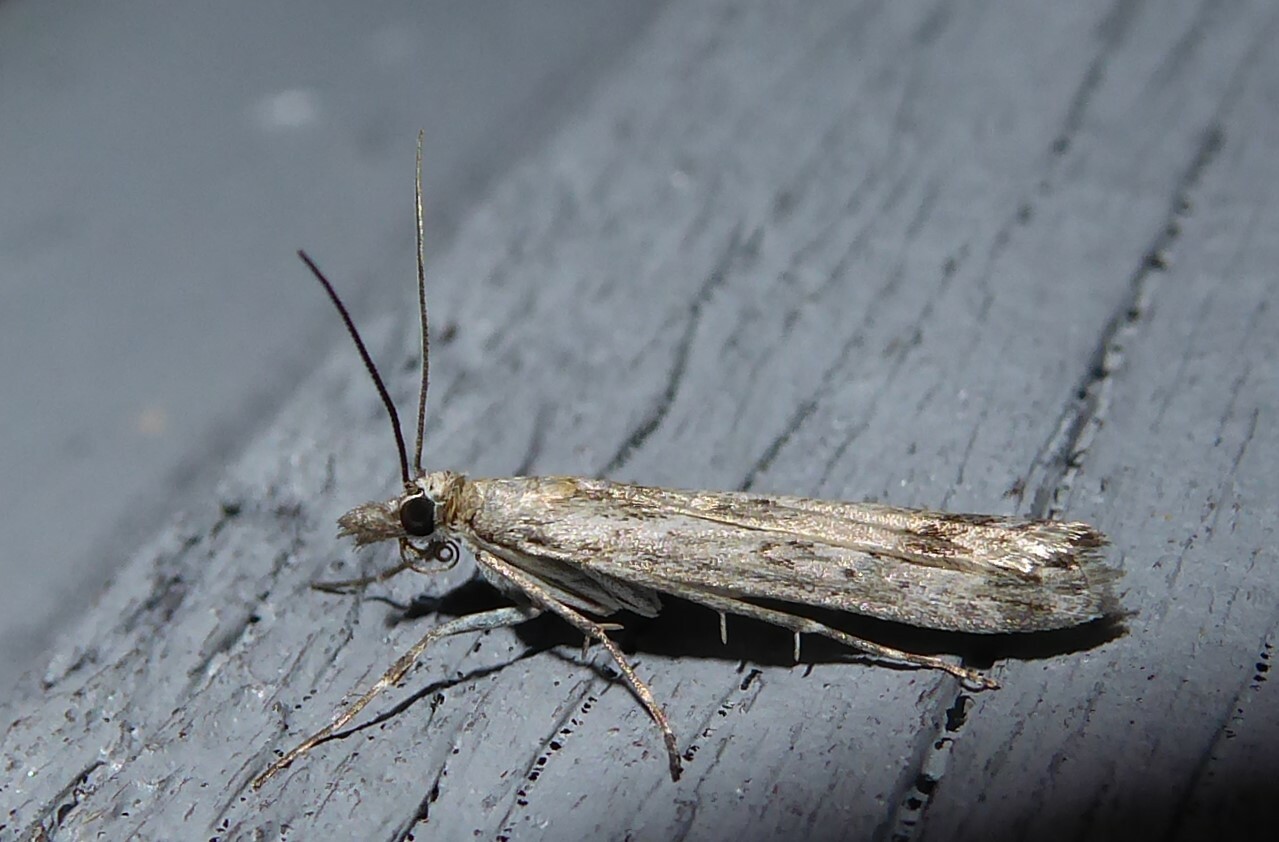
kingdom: Animalia
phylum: Arthropoda
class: Insecta
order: Lepidoptera
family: Crambidae
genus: Eudonia
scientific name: Eudonia leptalea
